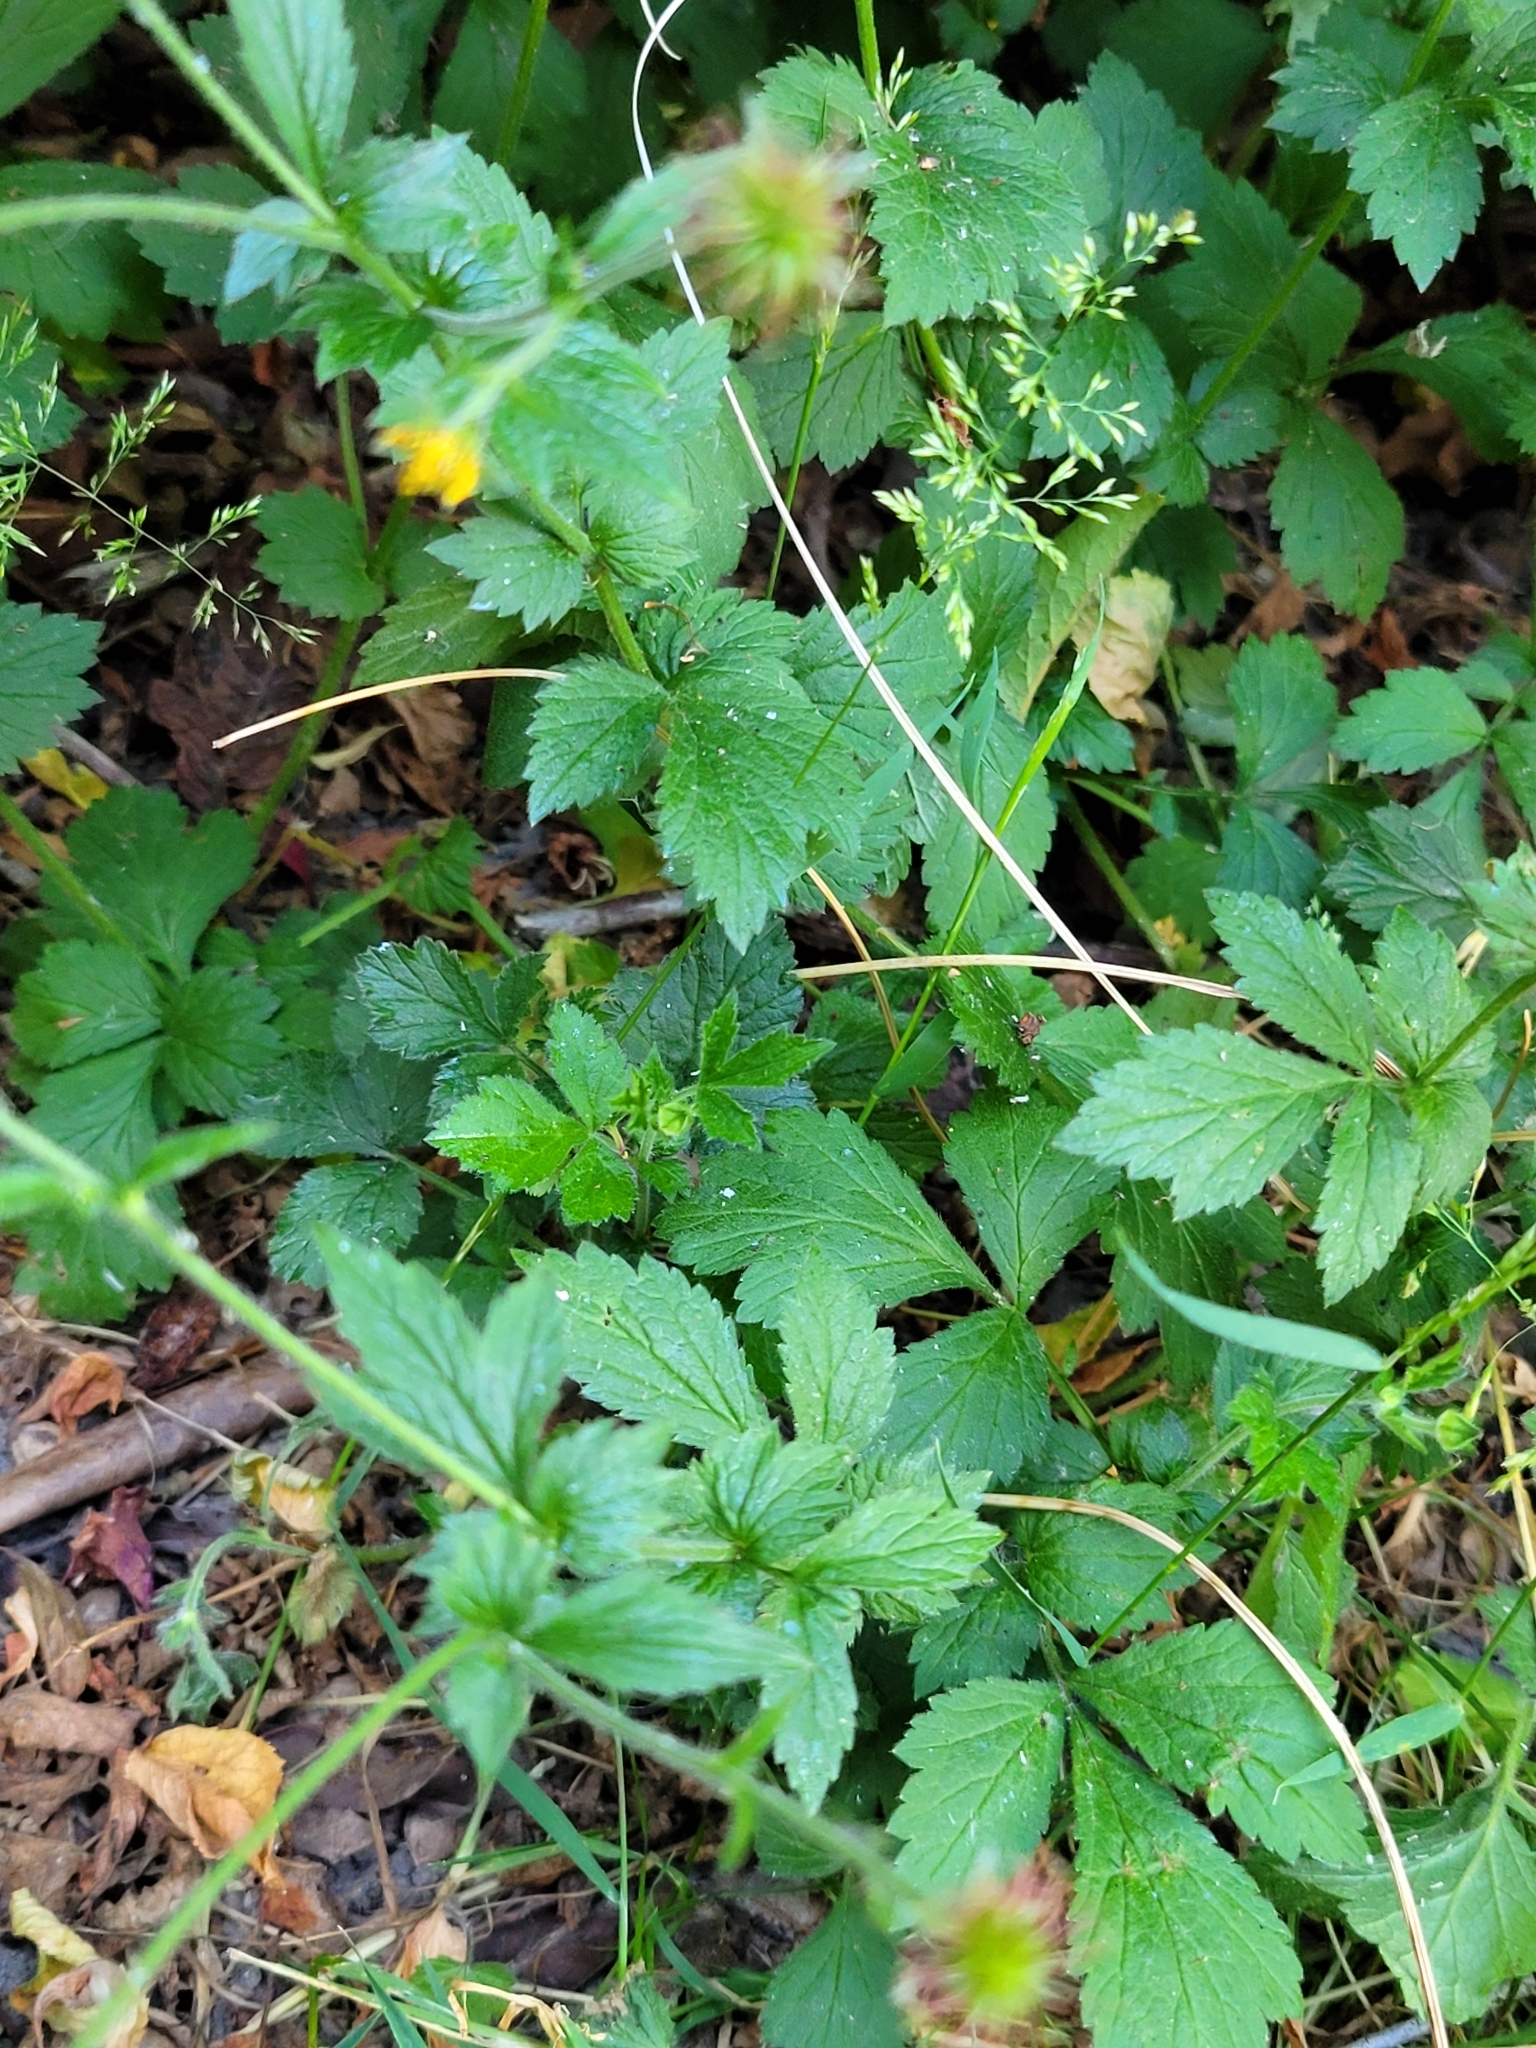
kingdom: Plantae
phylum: Tracheophyta
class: Magnoliopsida
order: Rosales
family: Rosaceae
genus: Geum
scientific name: Geum urbanum
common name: Wood avens
